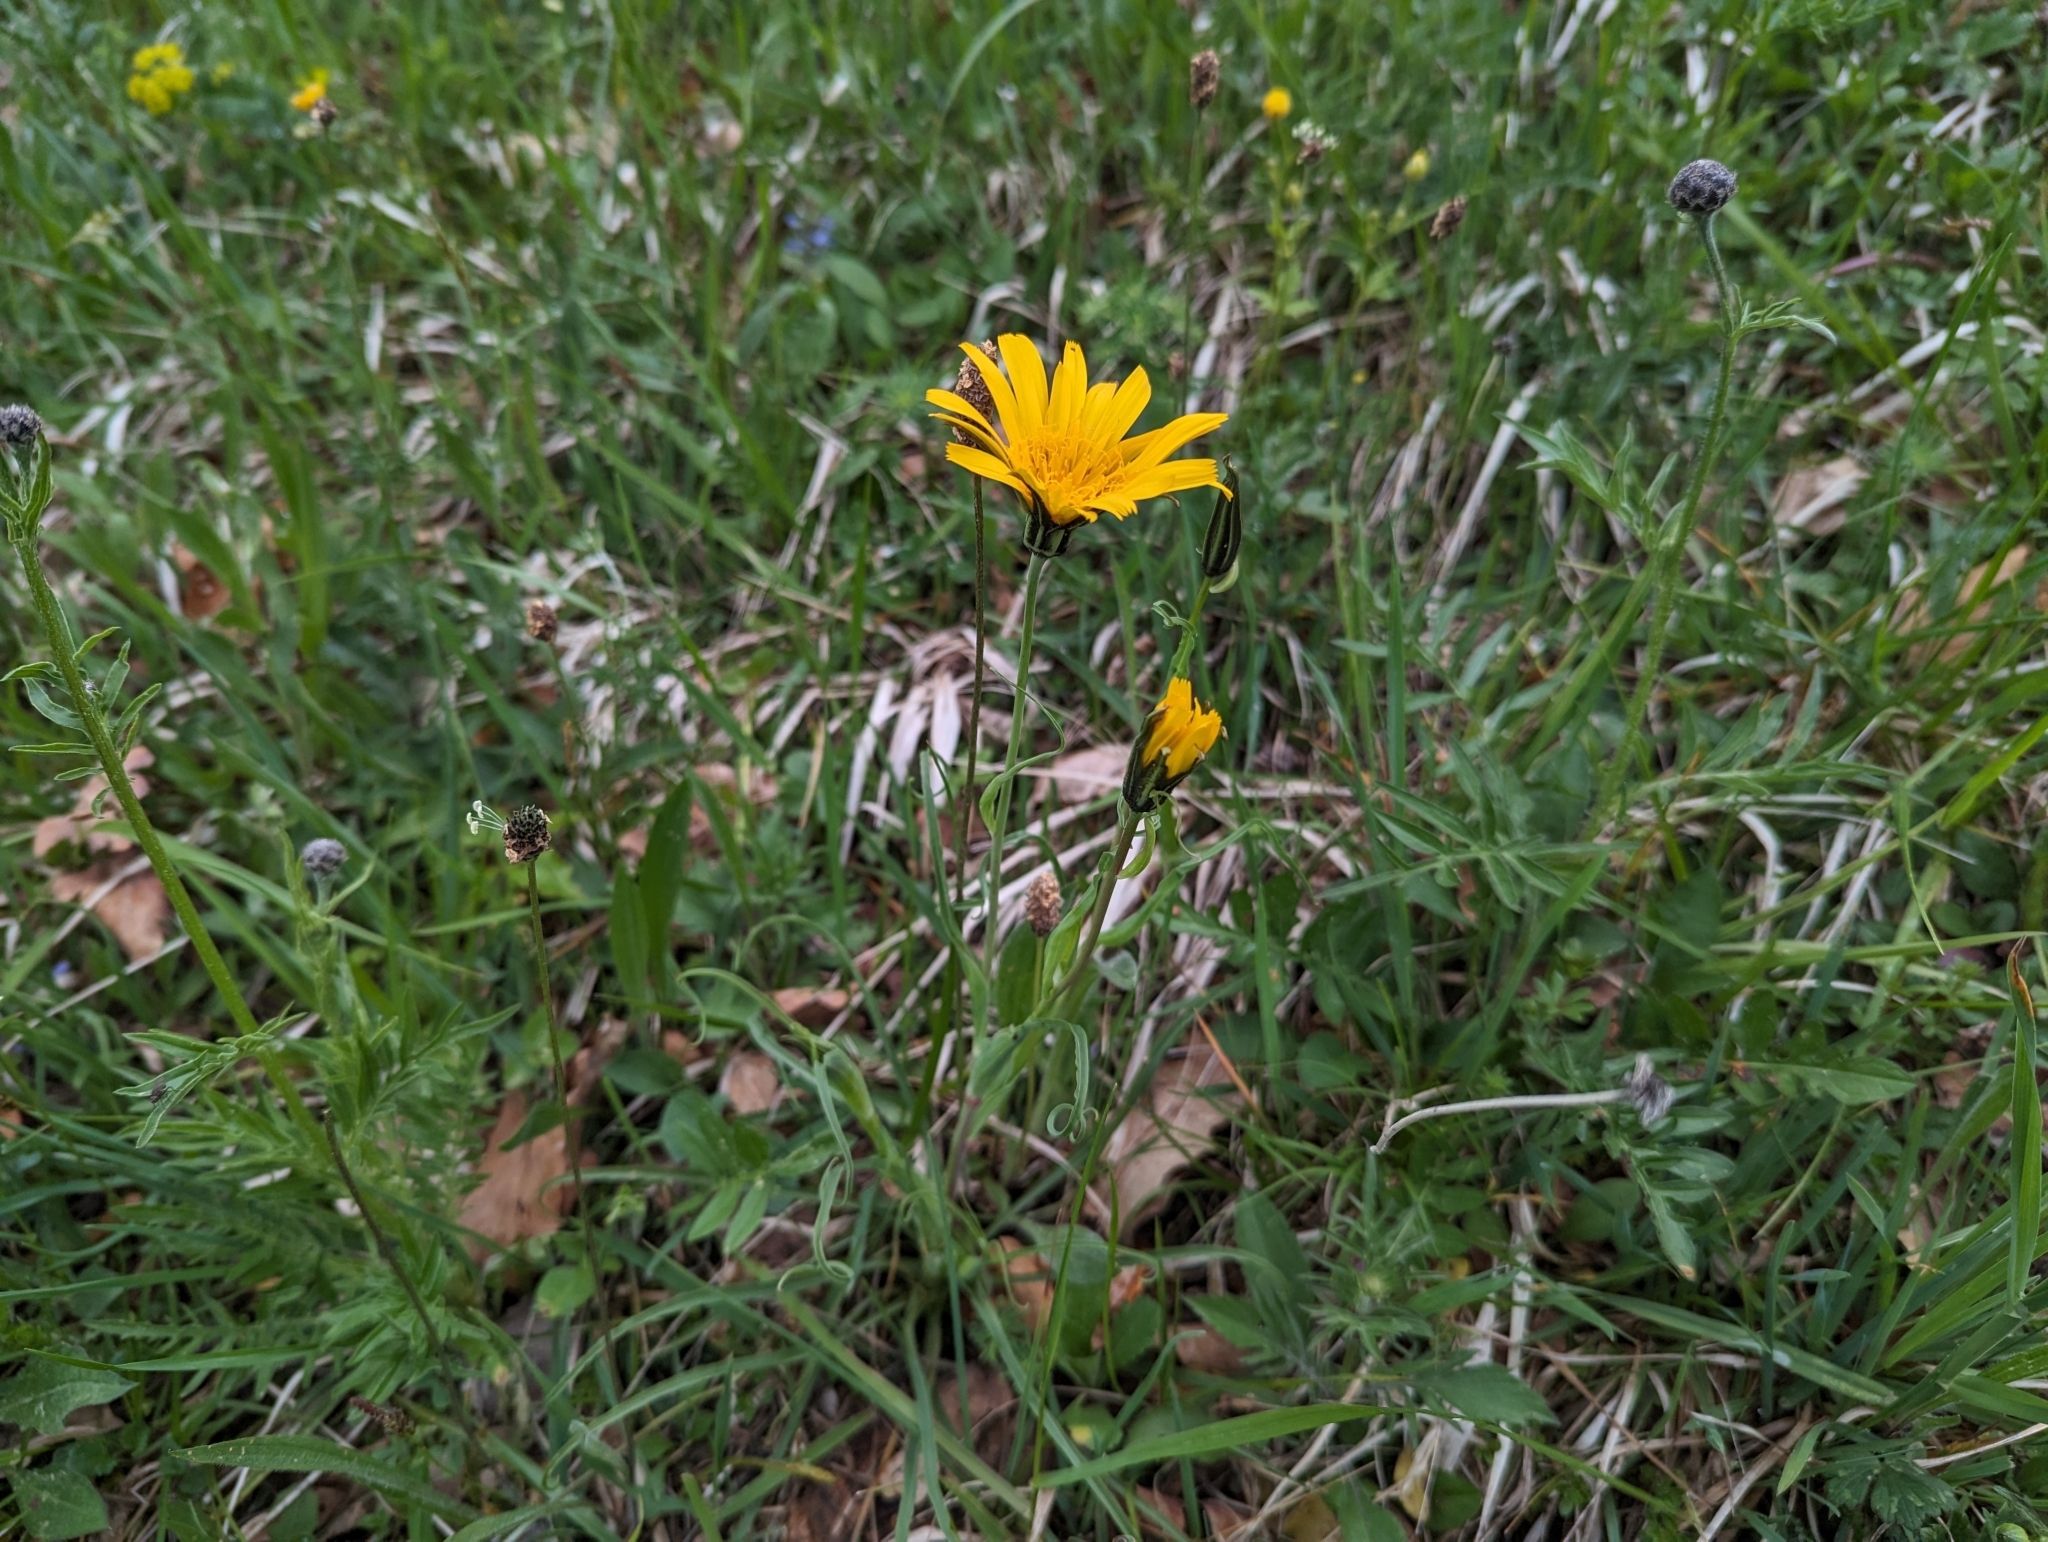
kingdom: Plantae
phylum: Tracheophyta
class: Magnoliopsida
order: Asterales
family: Asteraceae
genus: Tragopogon
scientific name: Tragopogon orientalis
